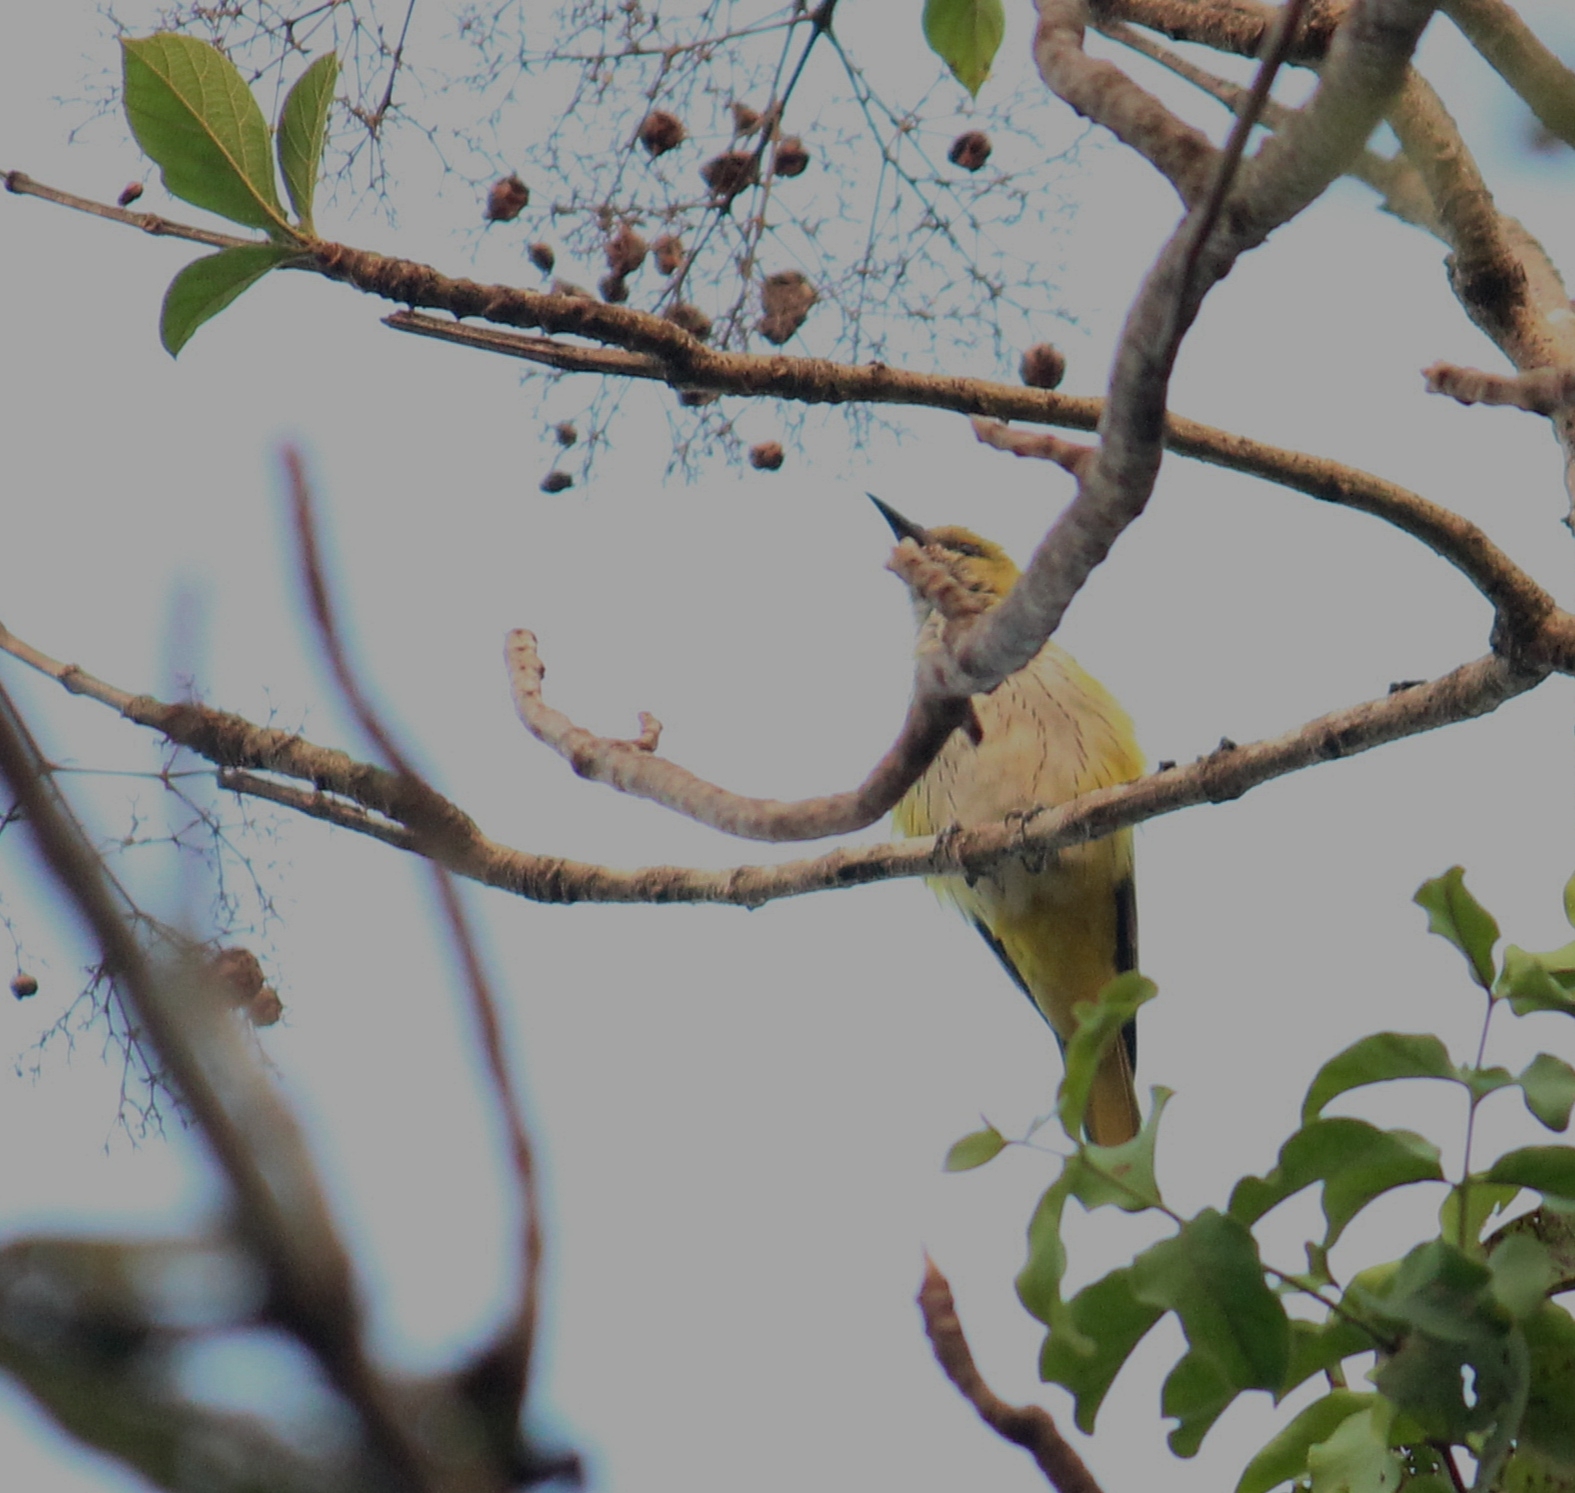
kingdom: Animalia
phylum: Chordata
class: Aves
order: Passeriformes
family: Oriolidae
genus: Oriolus
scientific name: Oriolus kundoo
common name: Indian golden oriole
